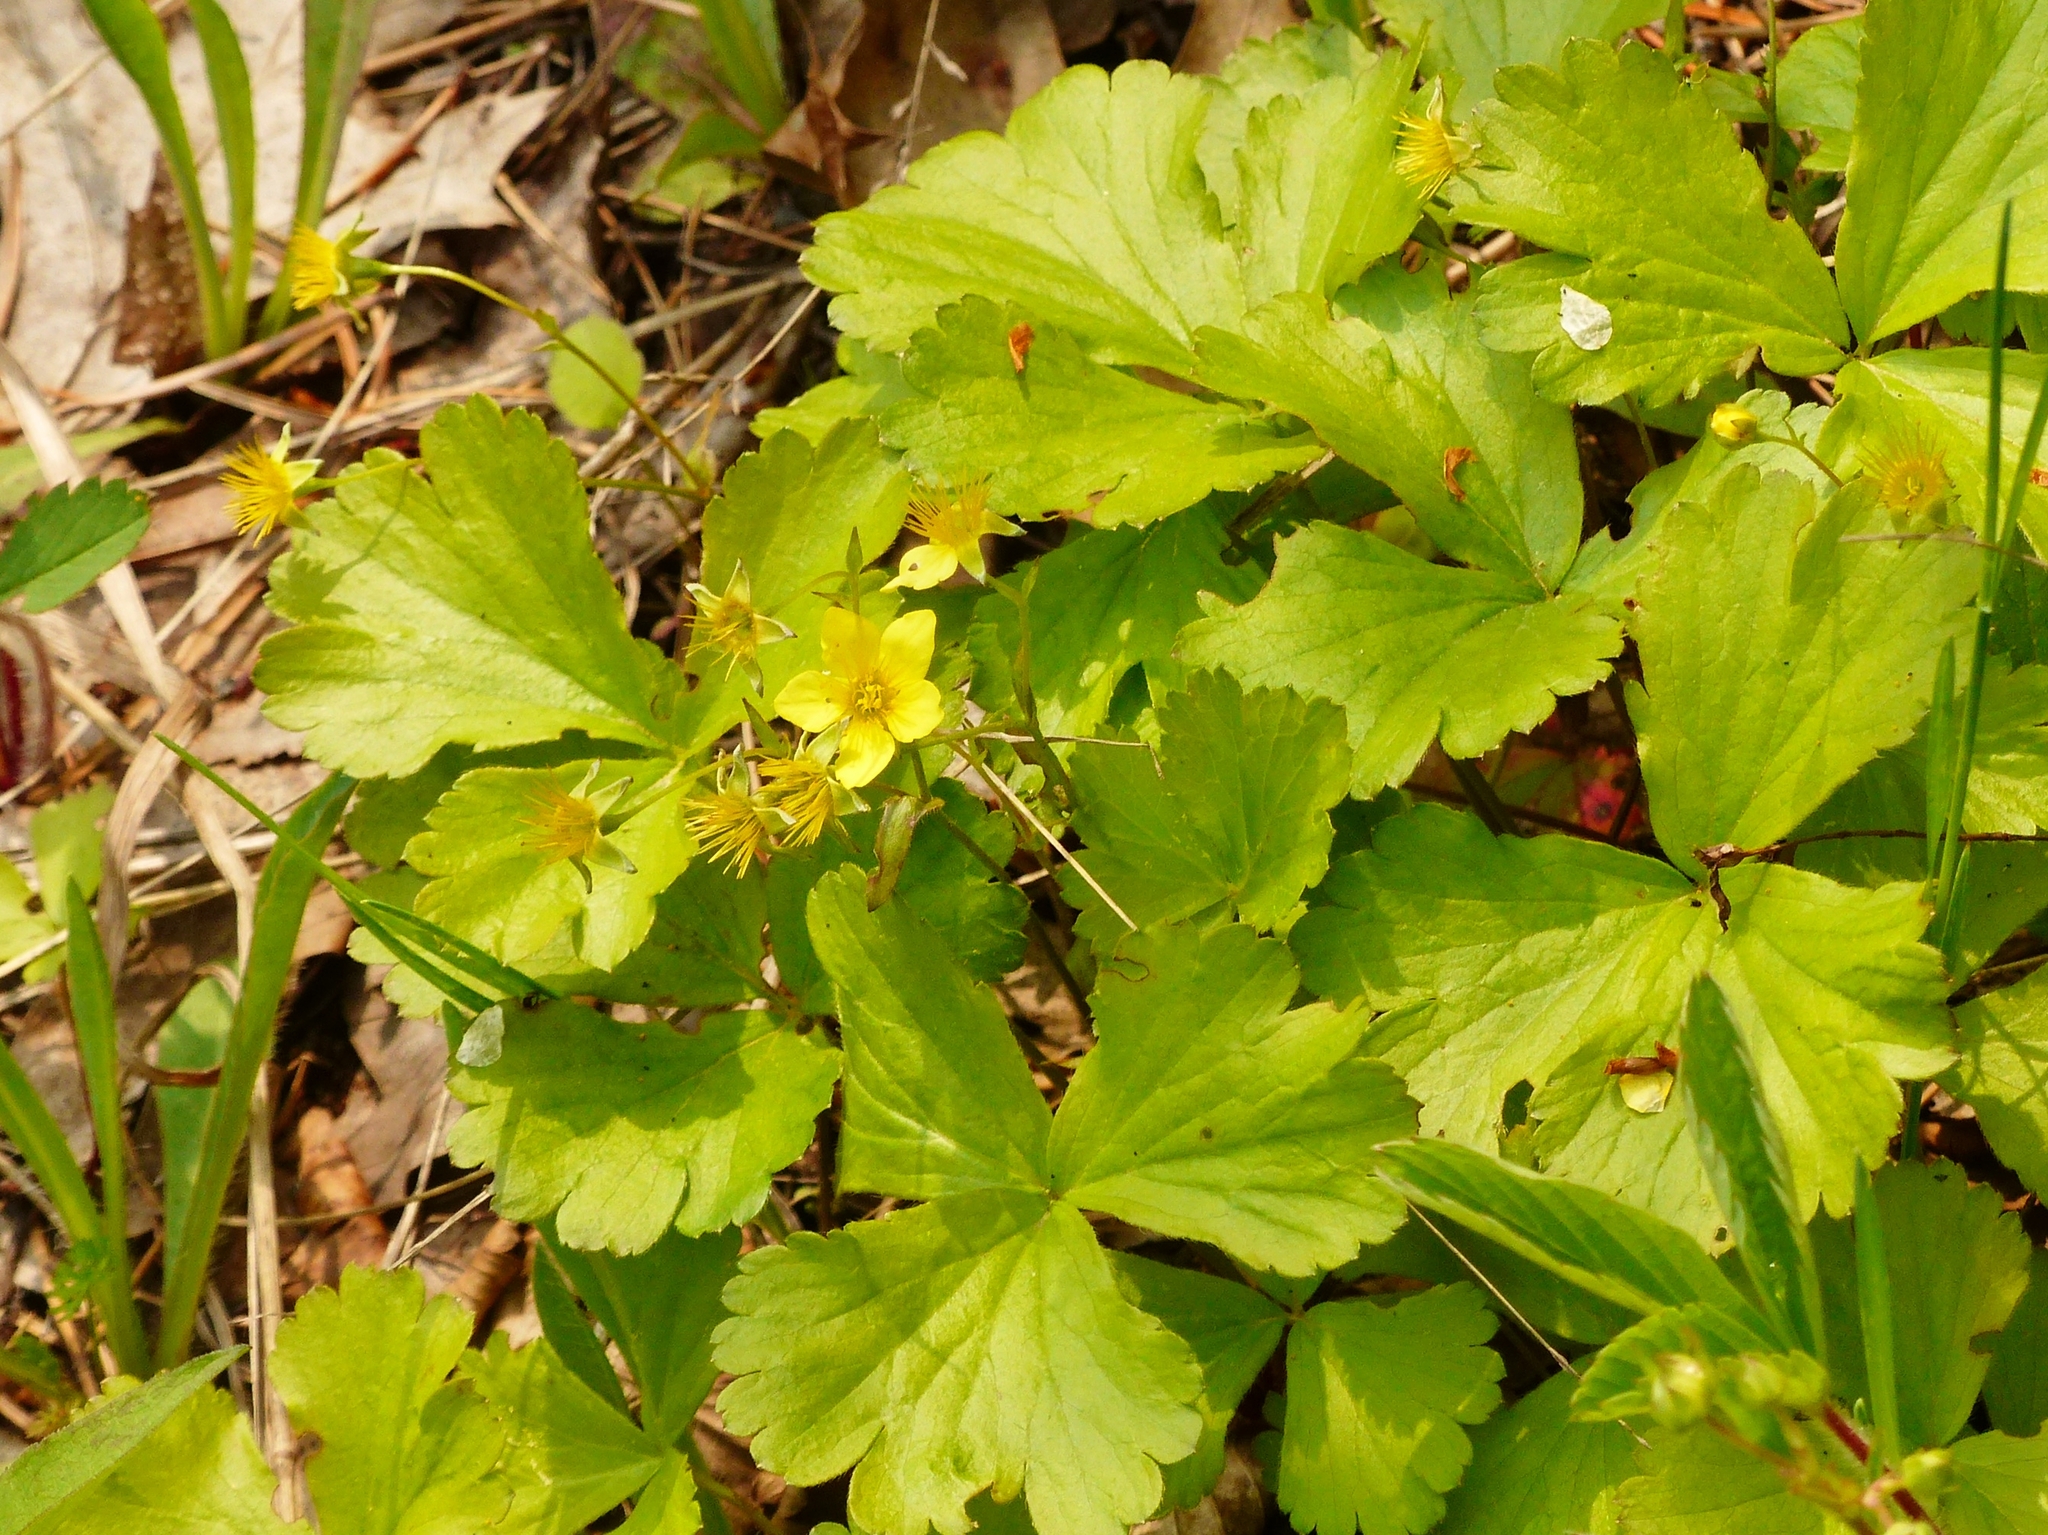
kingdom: Plantae
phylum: Tracheophyta
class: Magnoliopsida
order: Rosales
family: Rosaceae
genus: Geum
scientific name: Geum fragarioides
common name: Appalachian barren strawberry
